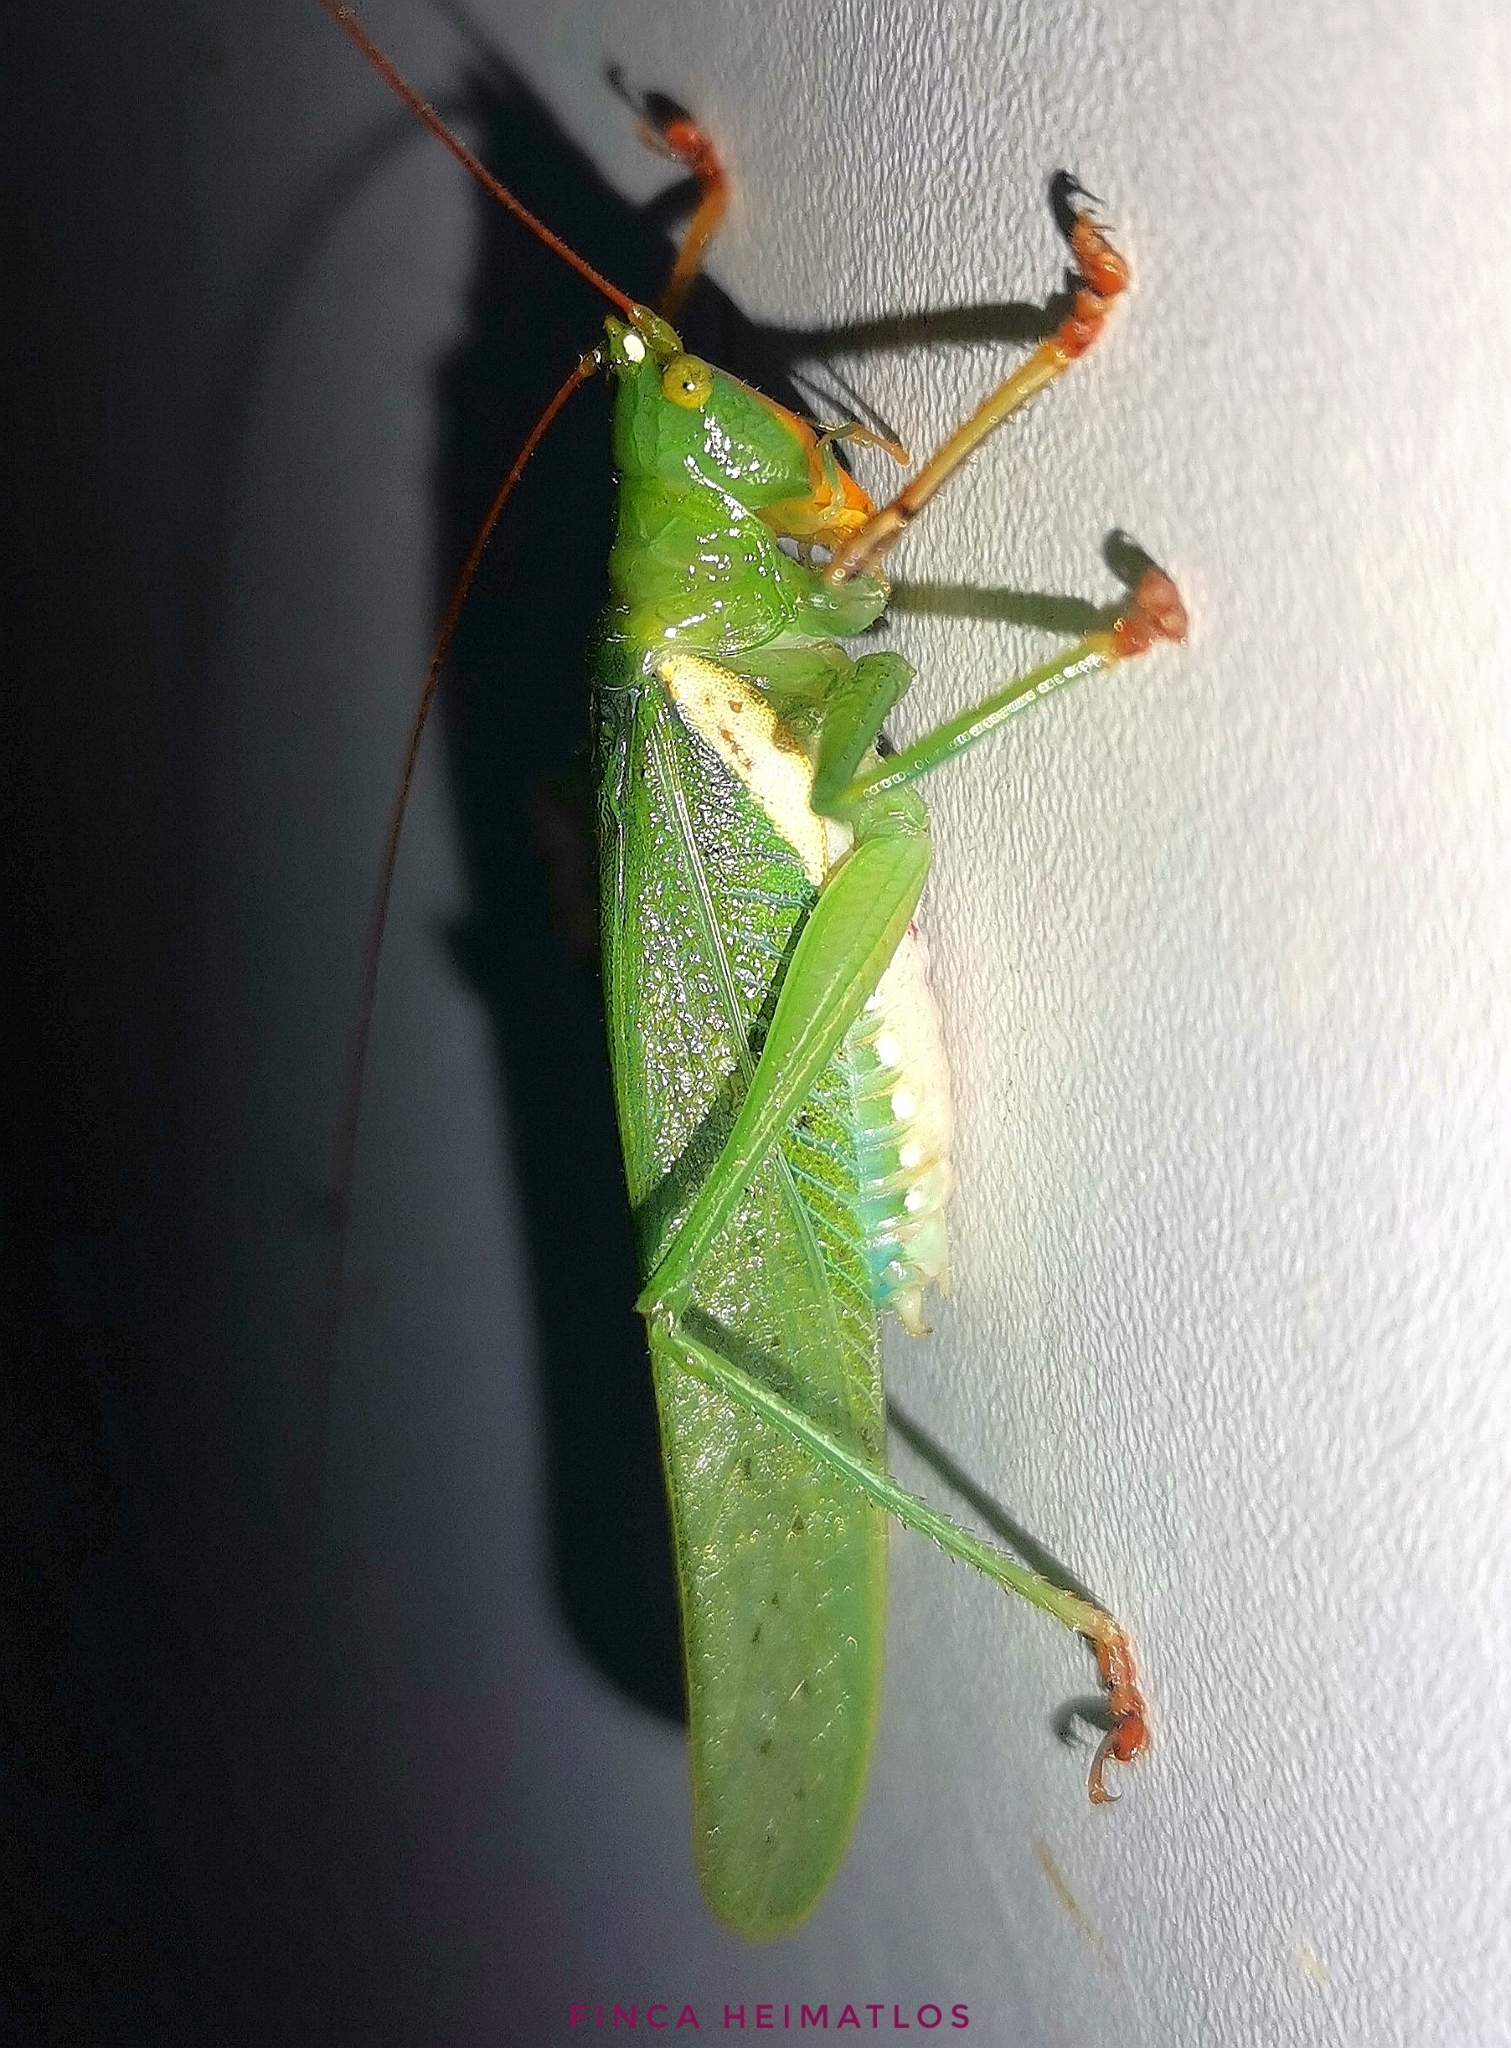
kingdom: Animalia
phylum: Arthropoda
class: Insecta
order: Orthoptera
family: Tettigoniidae
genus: Moncheca
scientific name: Moncheca bisulca
